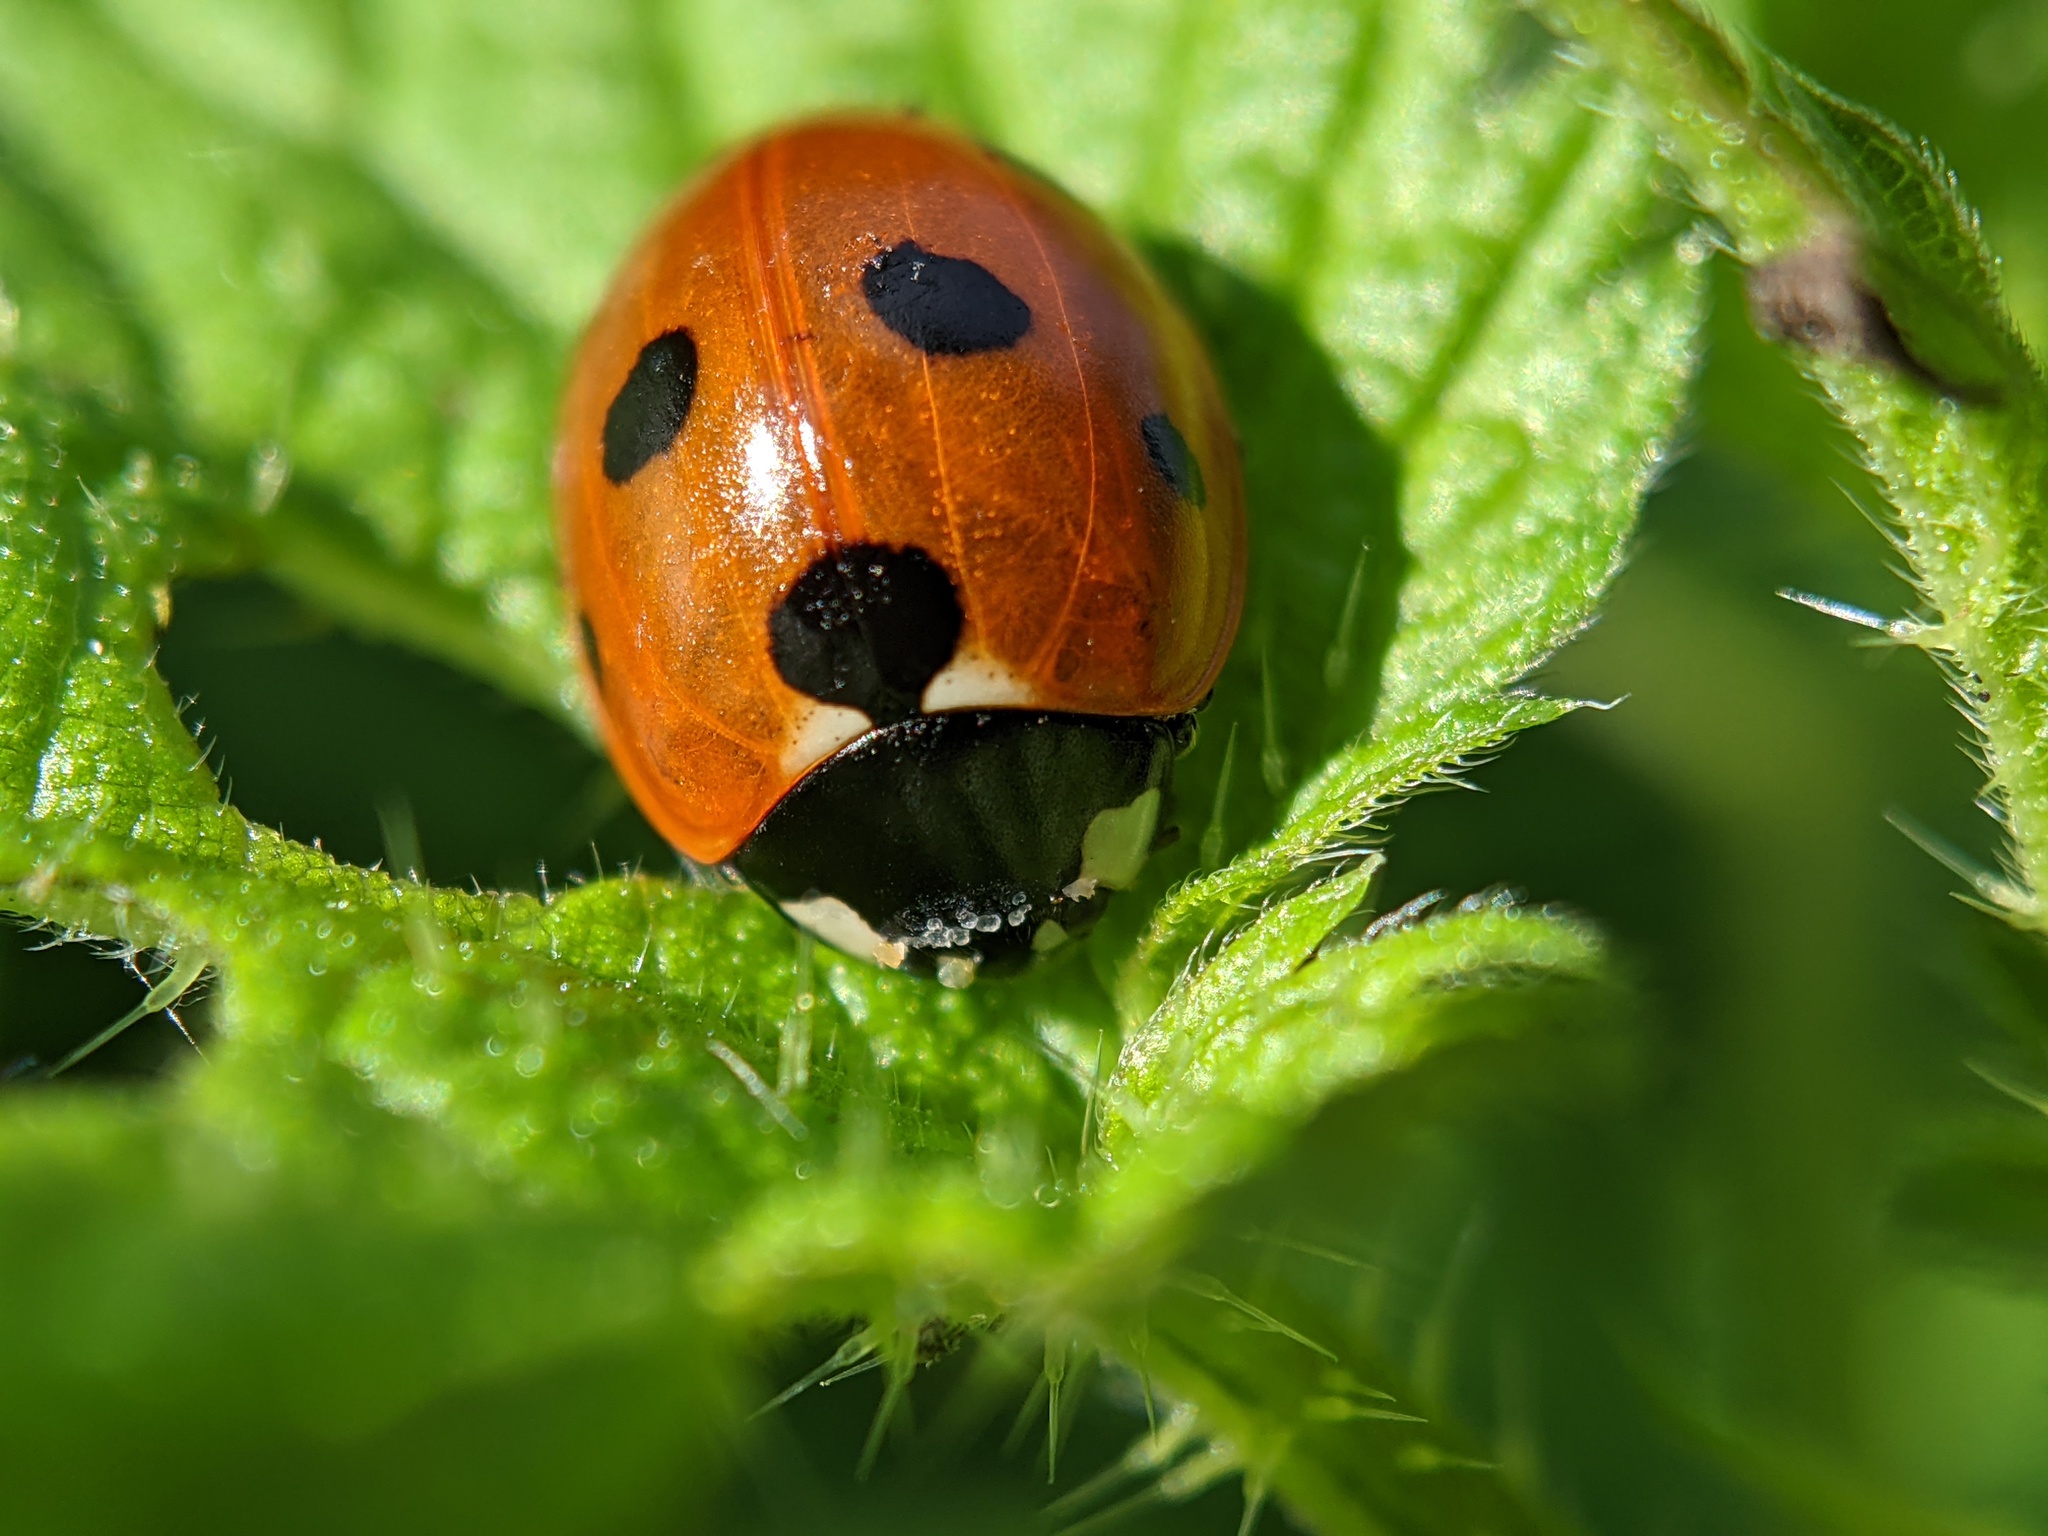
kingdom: Animalia
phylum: Arthropoda
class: Insecta
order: Coleoptera
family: Coccinellidae
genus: Coccinella
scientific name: Coccinella septempunctata
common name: Sevenspotted lady beetle
